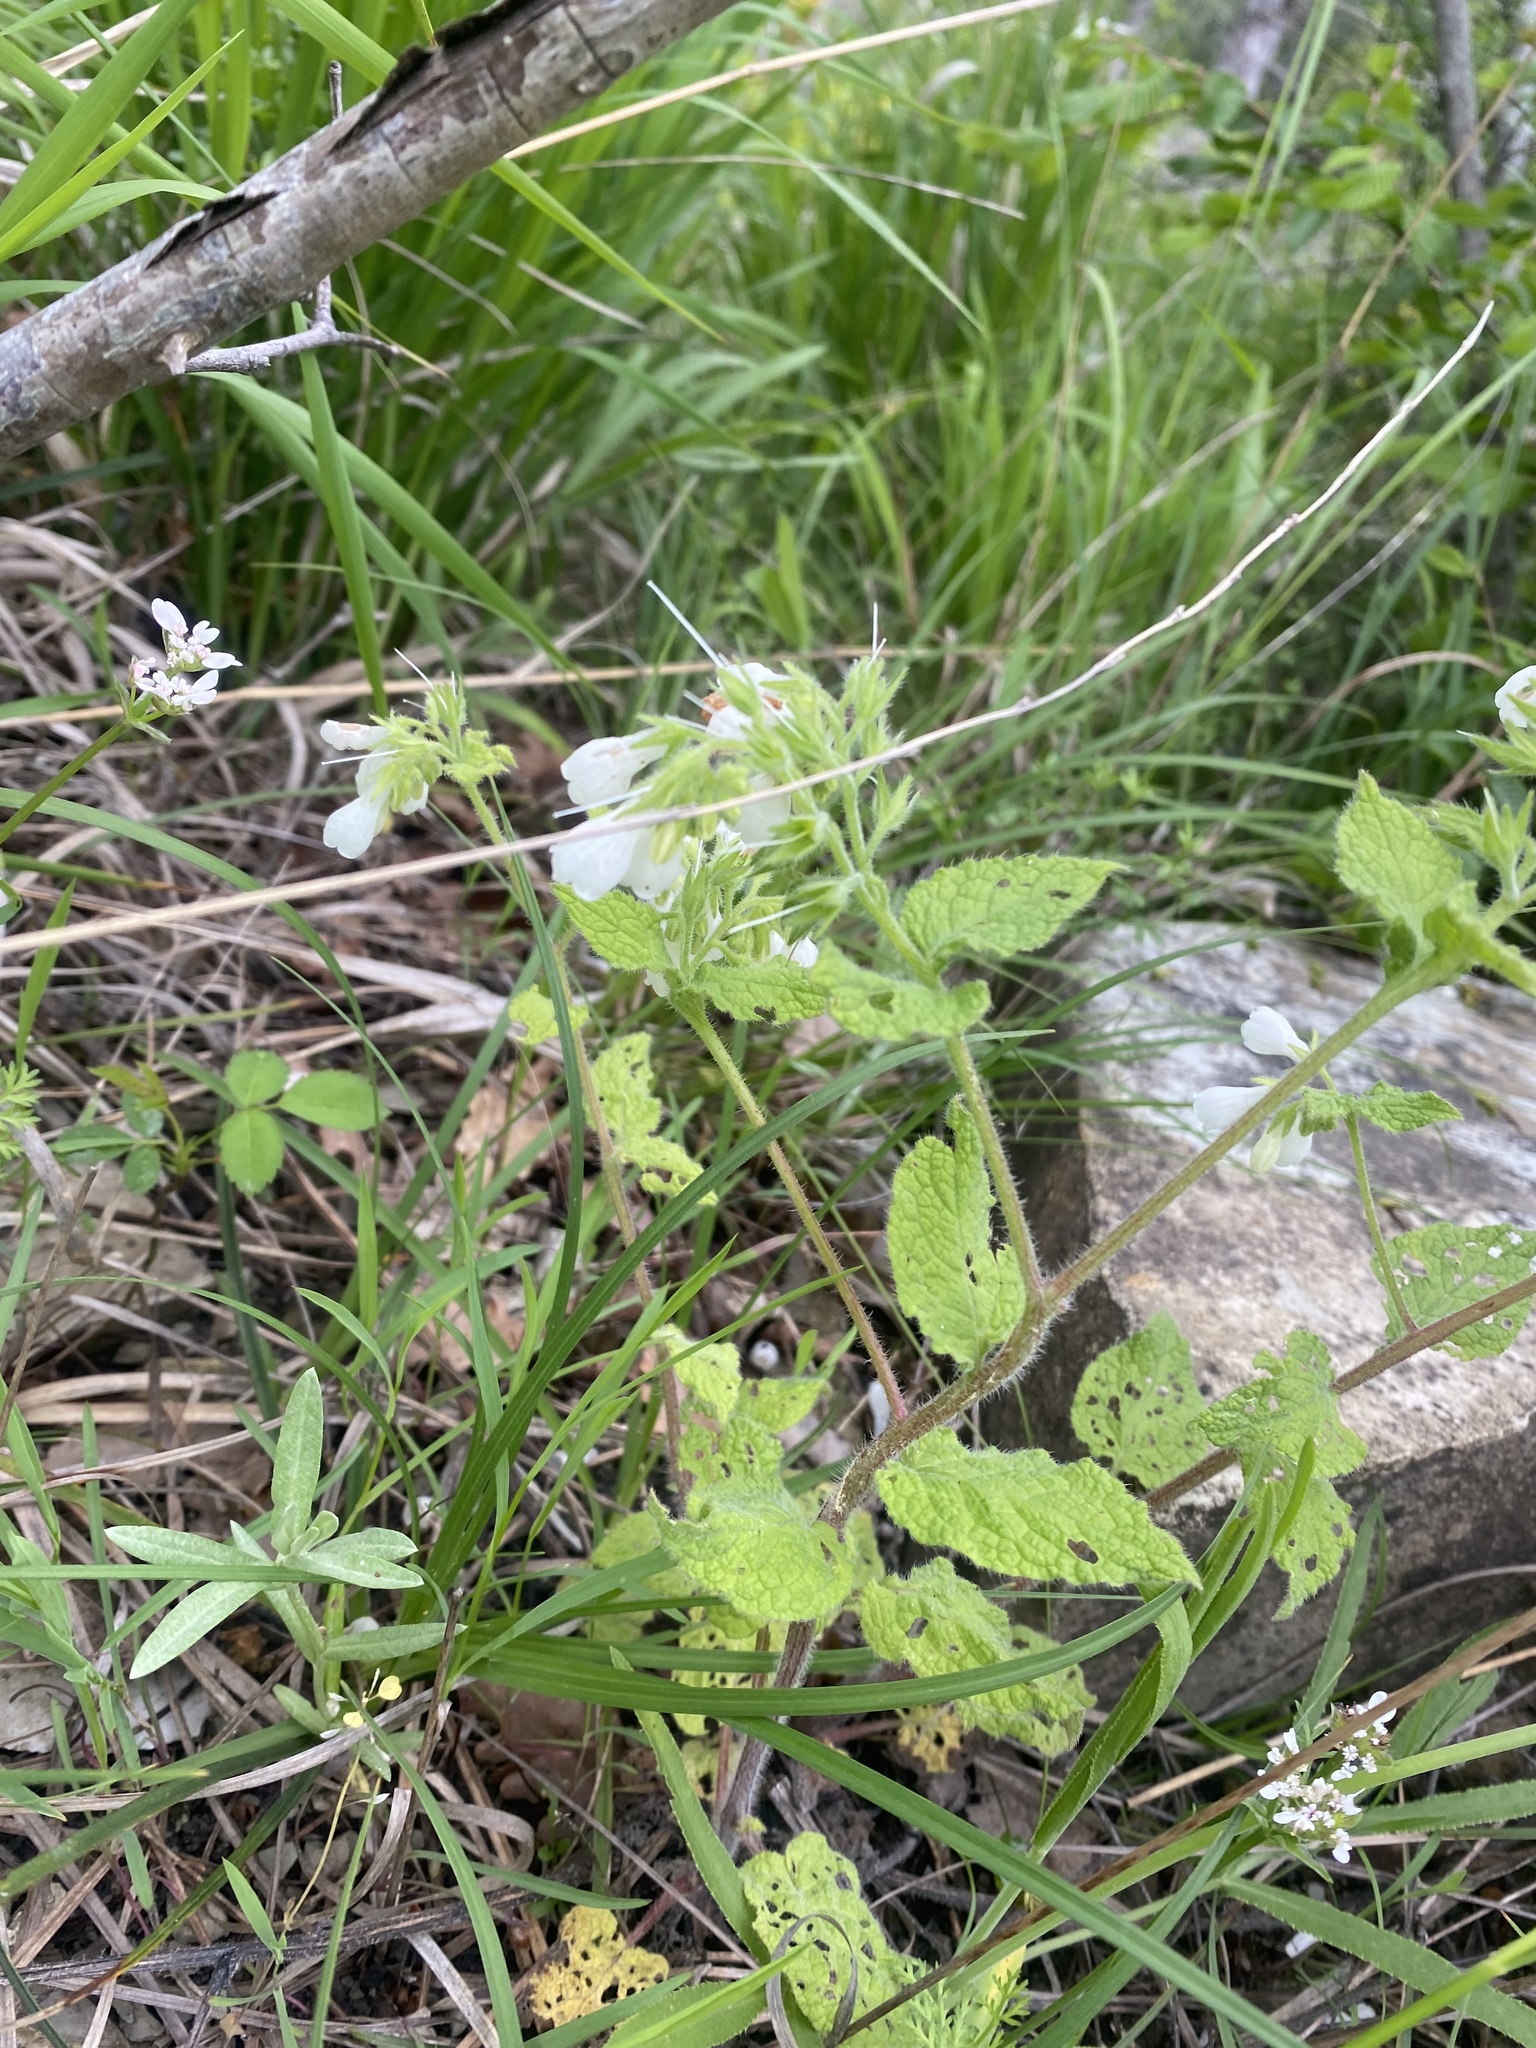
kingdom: Plantae
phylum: Tracheophyta
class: Magnoliopsida
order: Boraginales
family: Boraginaceae
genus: Symphytum
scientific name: Symphytum tauricum
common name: Crimean comfrey
